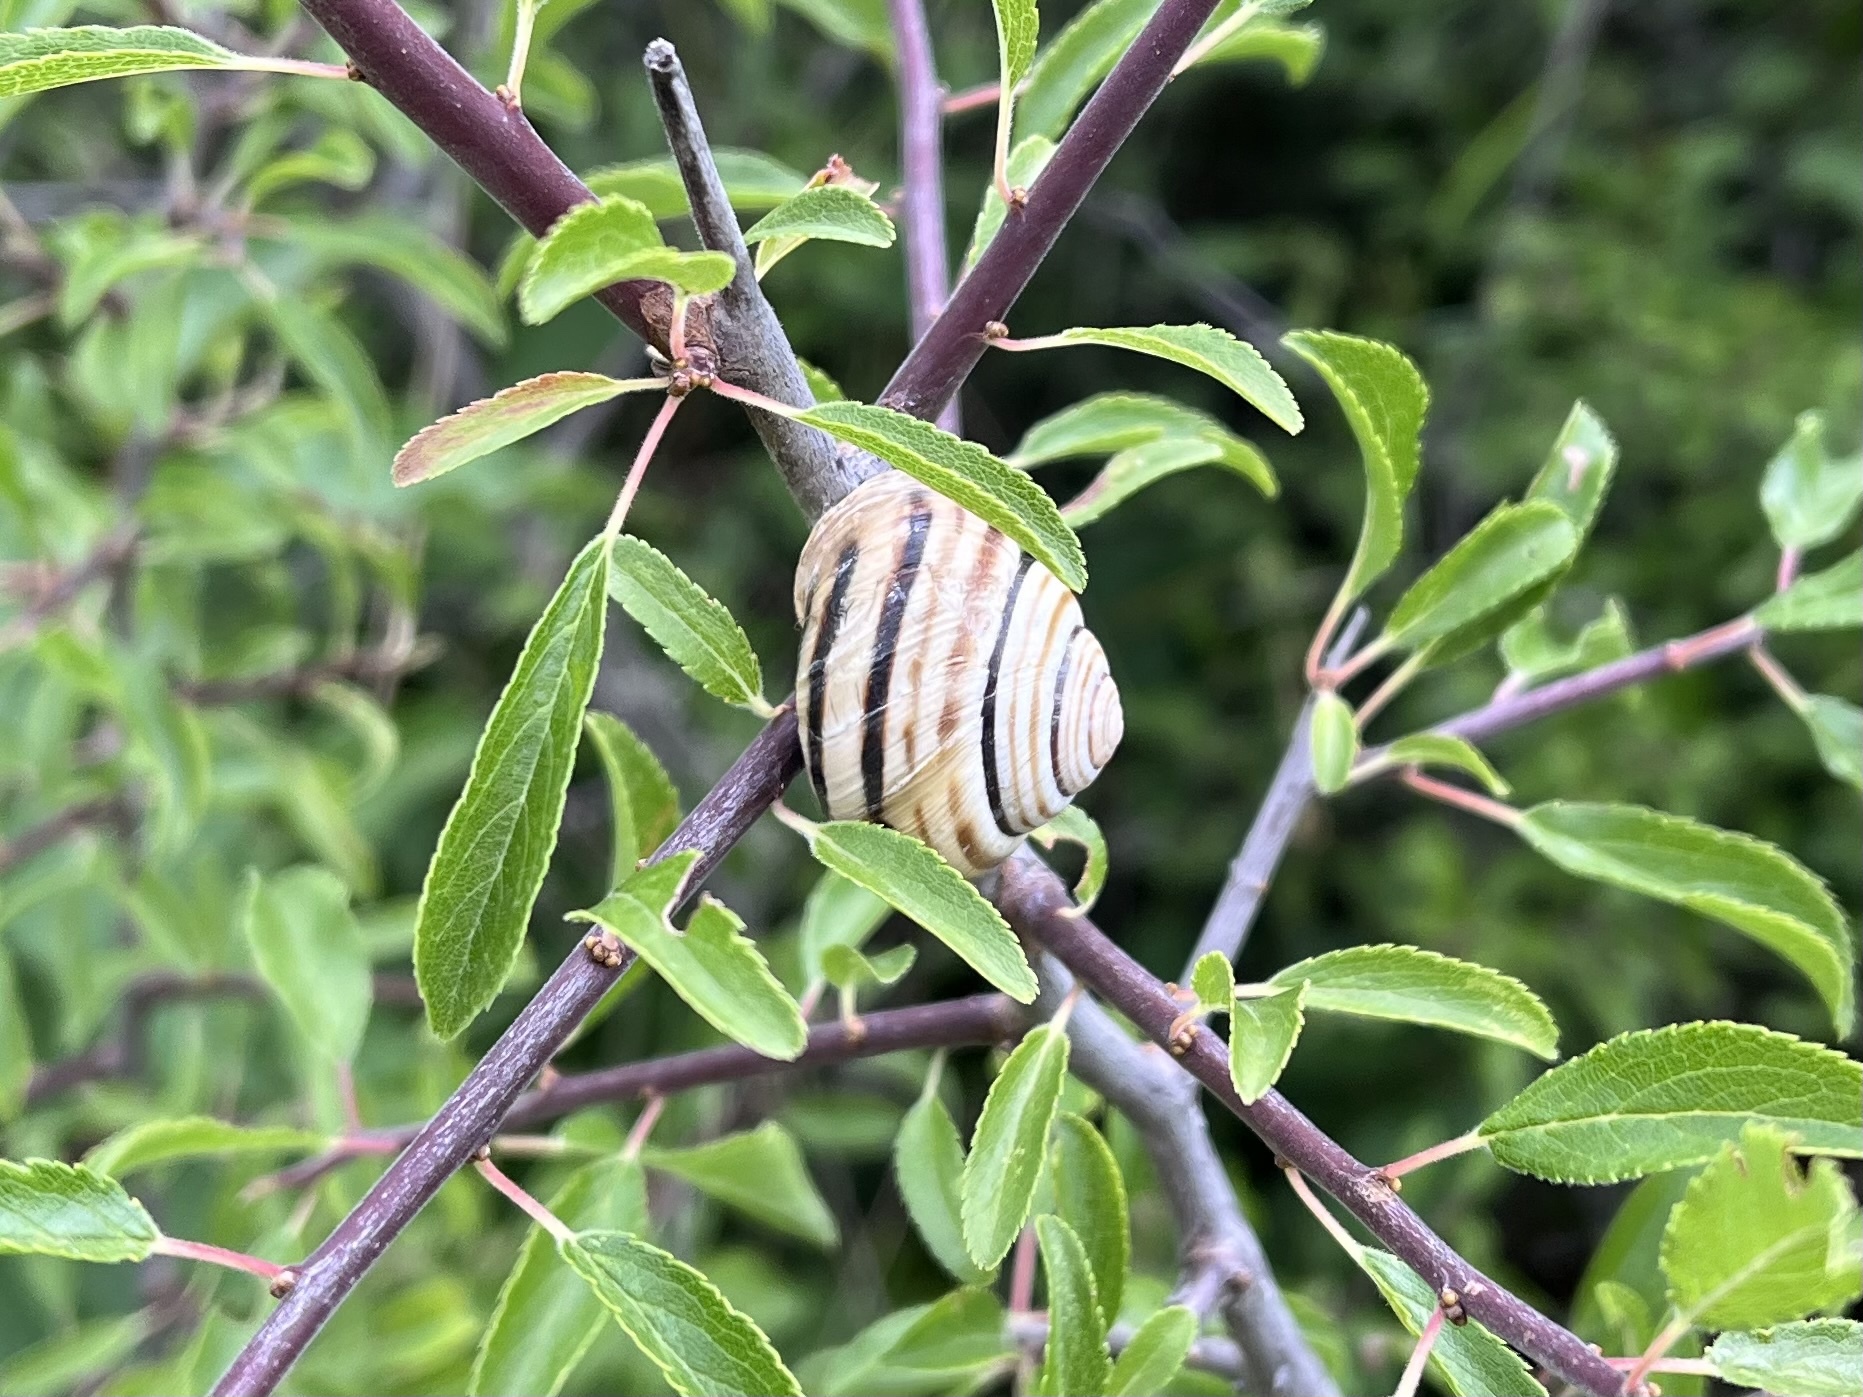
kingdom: Animalia
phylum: Mollusca
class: Gastropoda
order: Stylommatophora
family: Helicidae
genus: Caucasotachea
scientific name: Caucasotachea vindobonensis
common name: European helicid land snail
